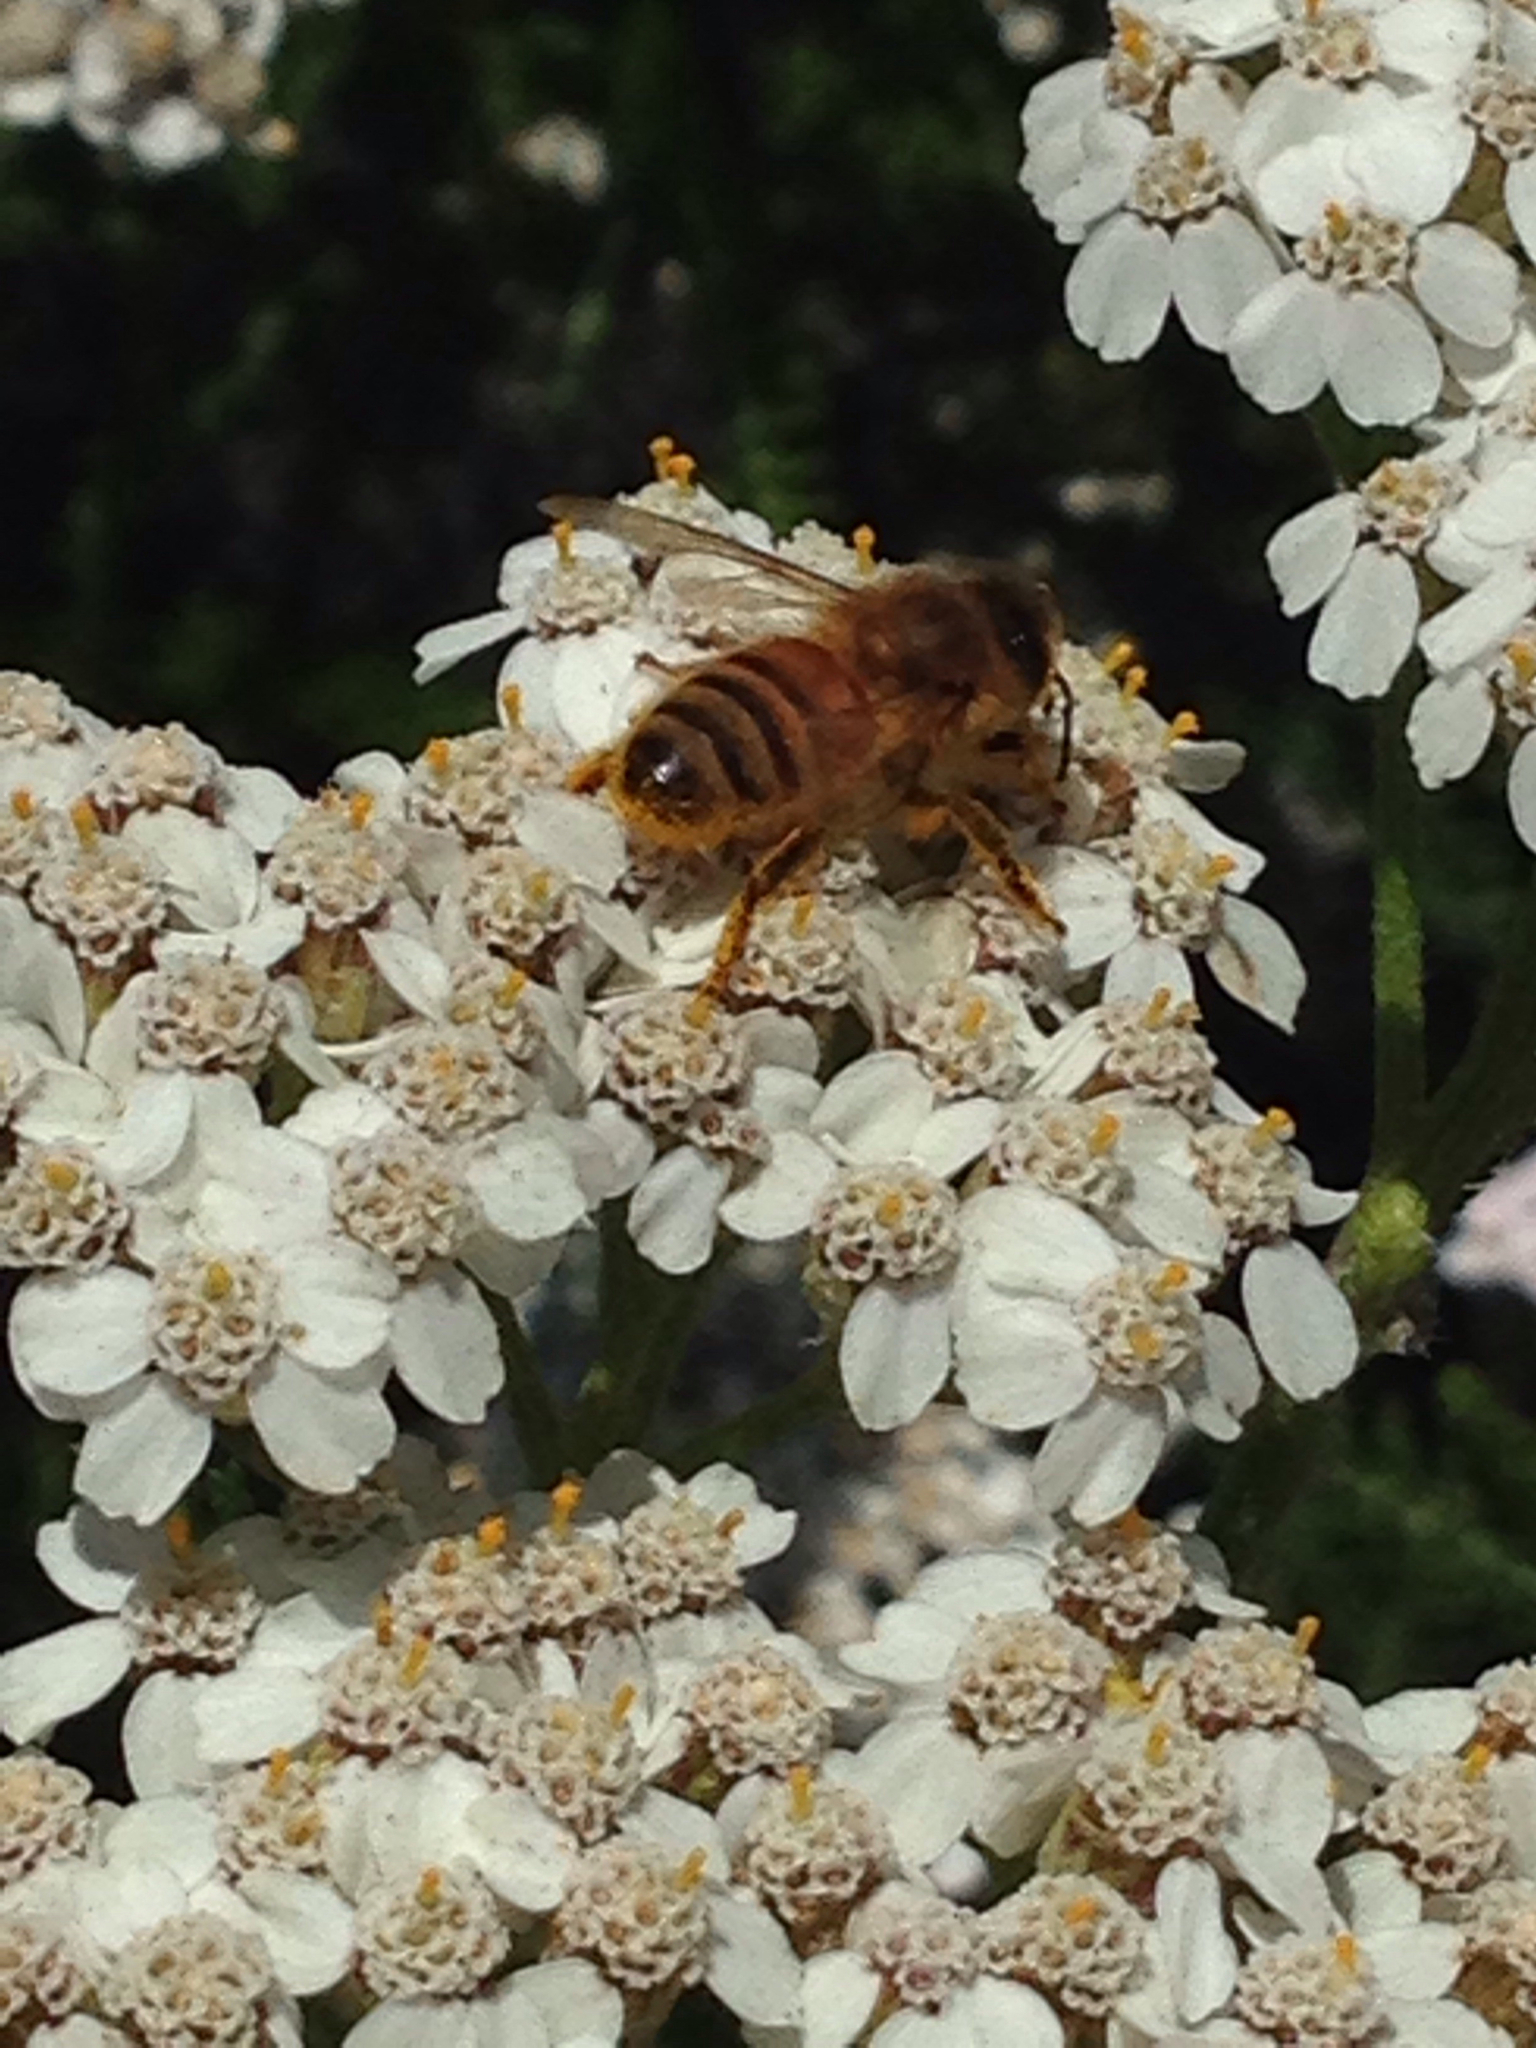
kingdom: Animalia
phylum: Arthropoda
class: Insecta
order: Hymenoptera
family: Apidae
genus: Apis
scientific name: Apis mellifera
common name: Honey bee
